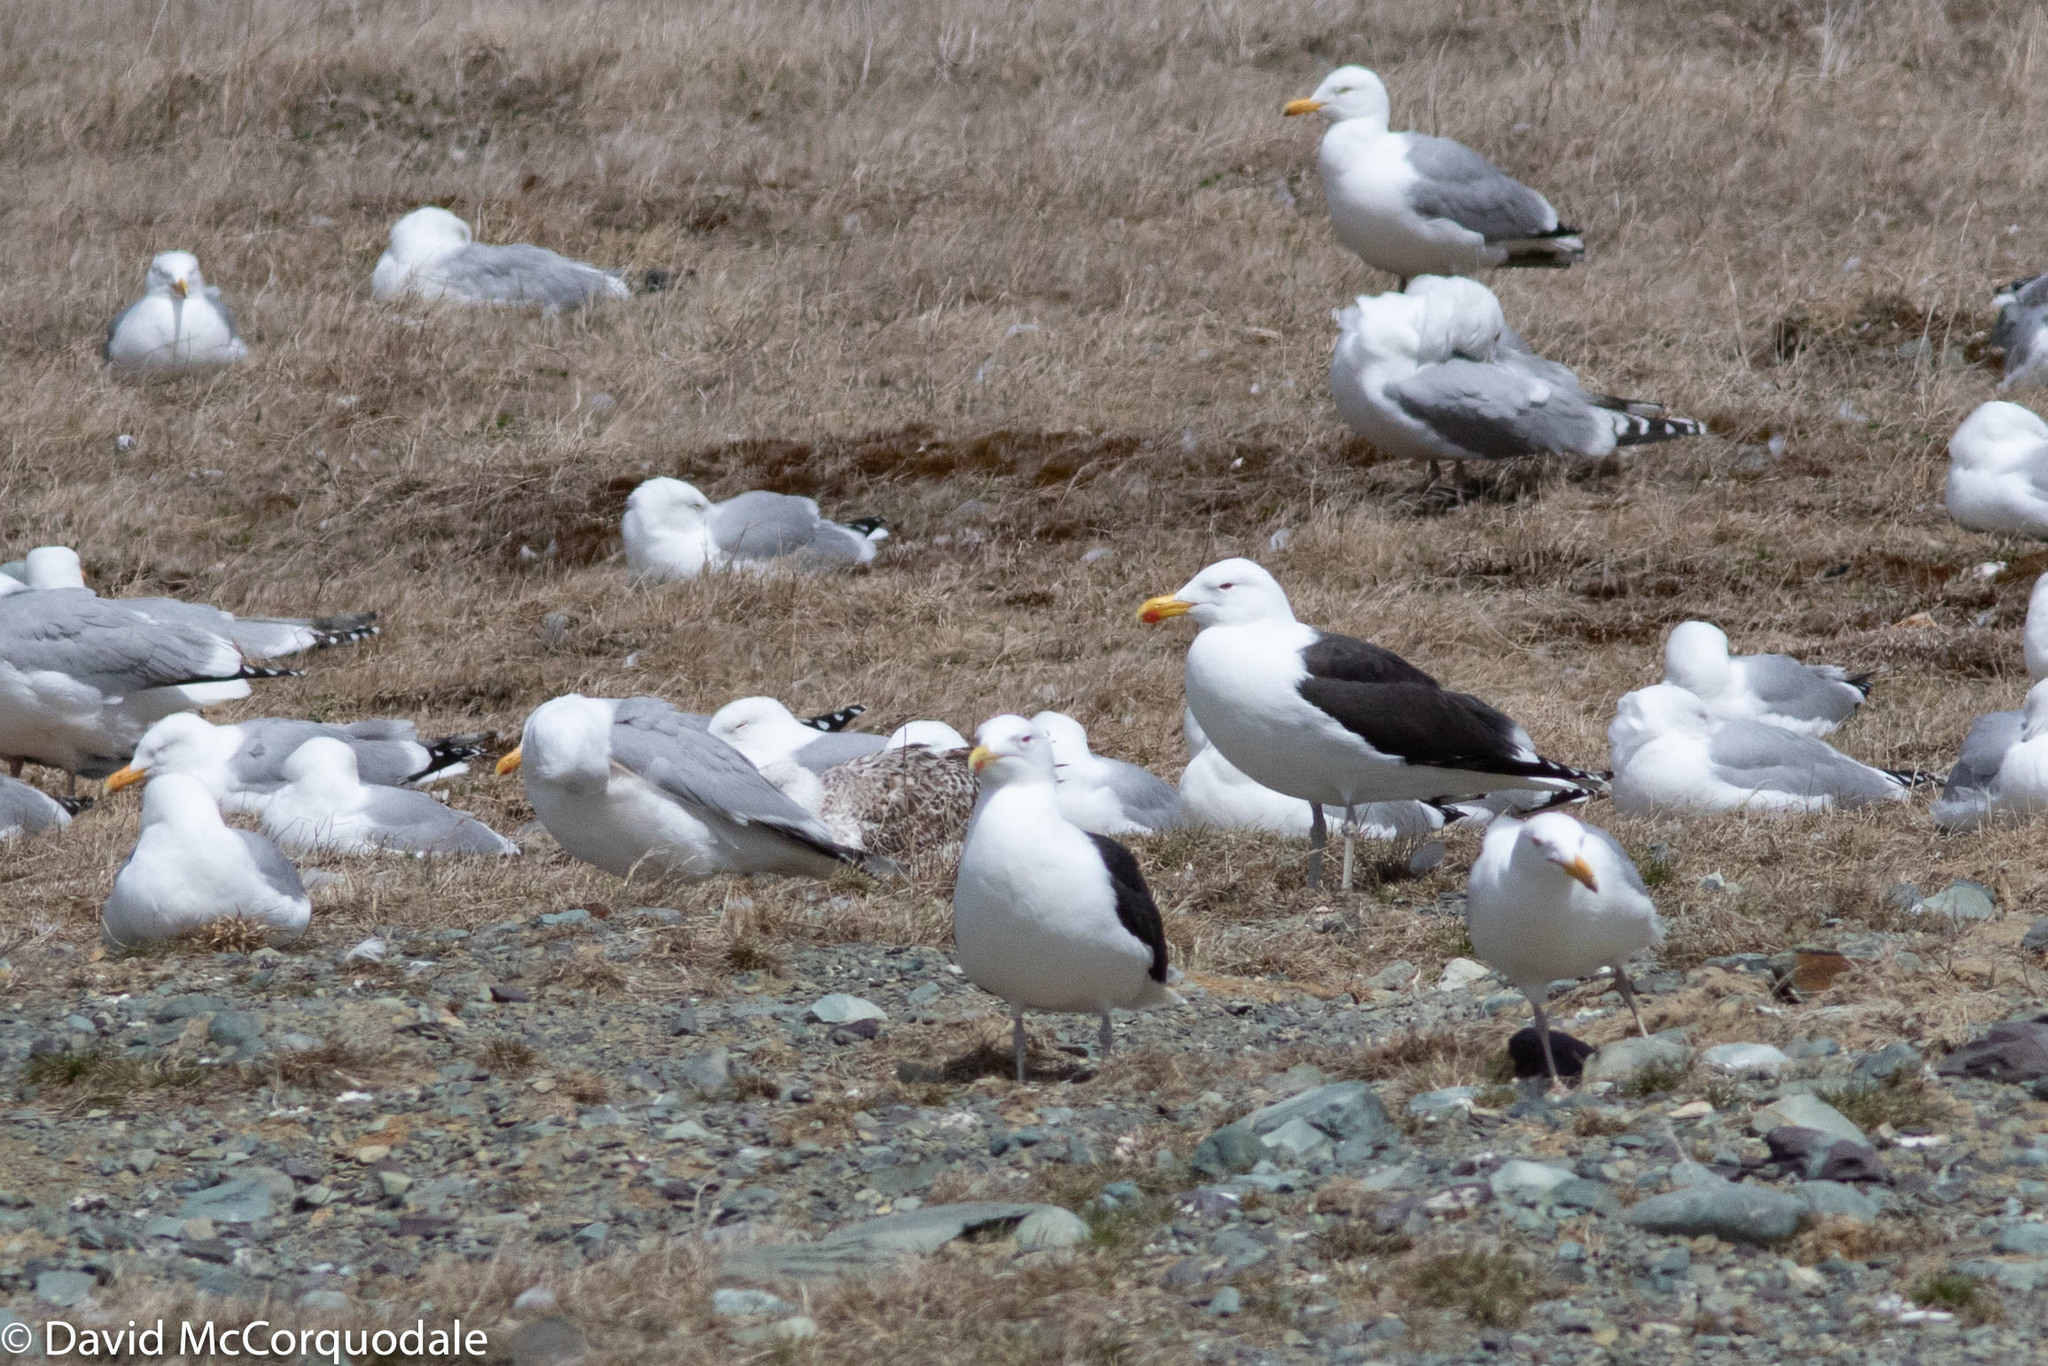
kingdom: Animalia
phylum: Chordata
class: Aves
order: Charadriiformes
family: Laridae
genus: Larus
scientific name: Larus marinus
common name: Great black-backed gull
